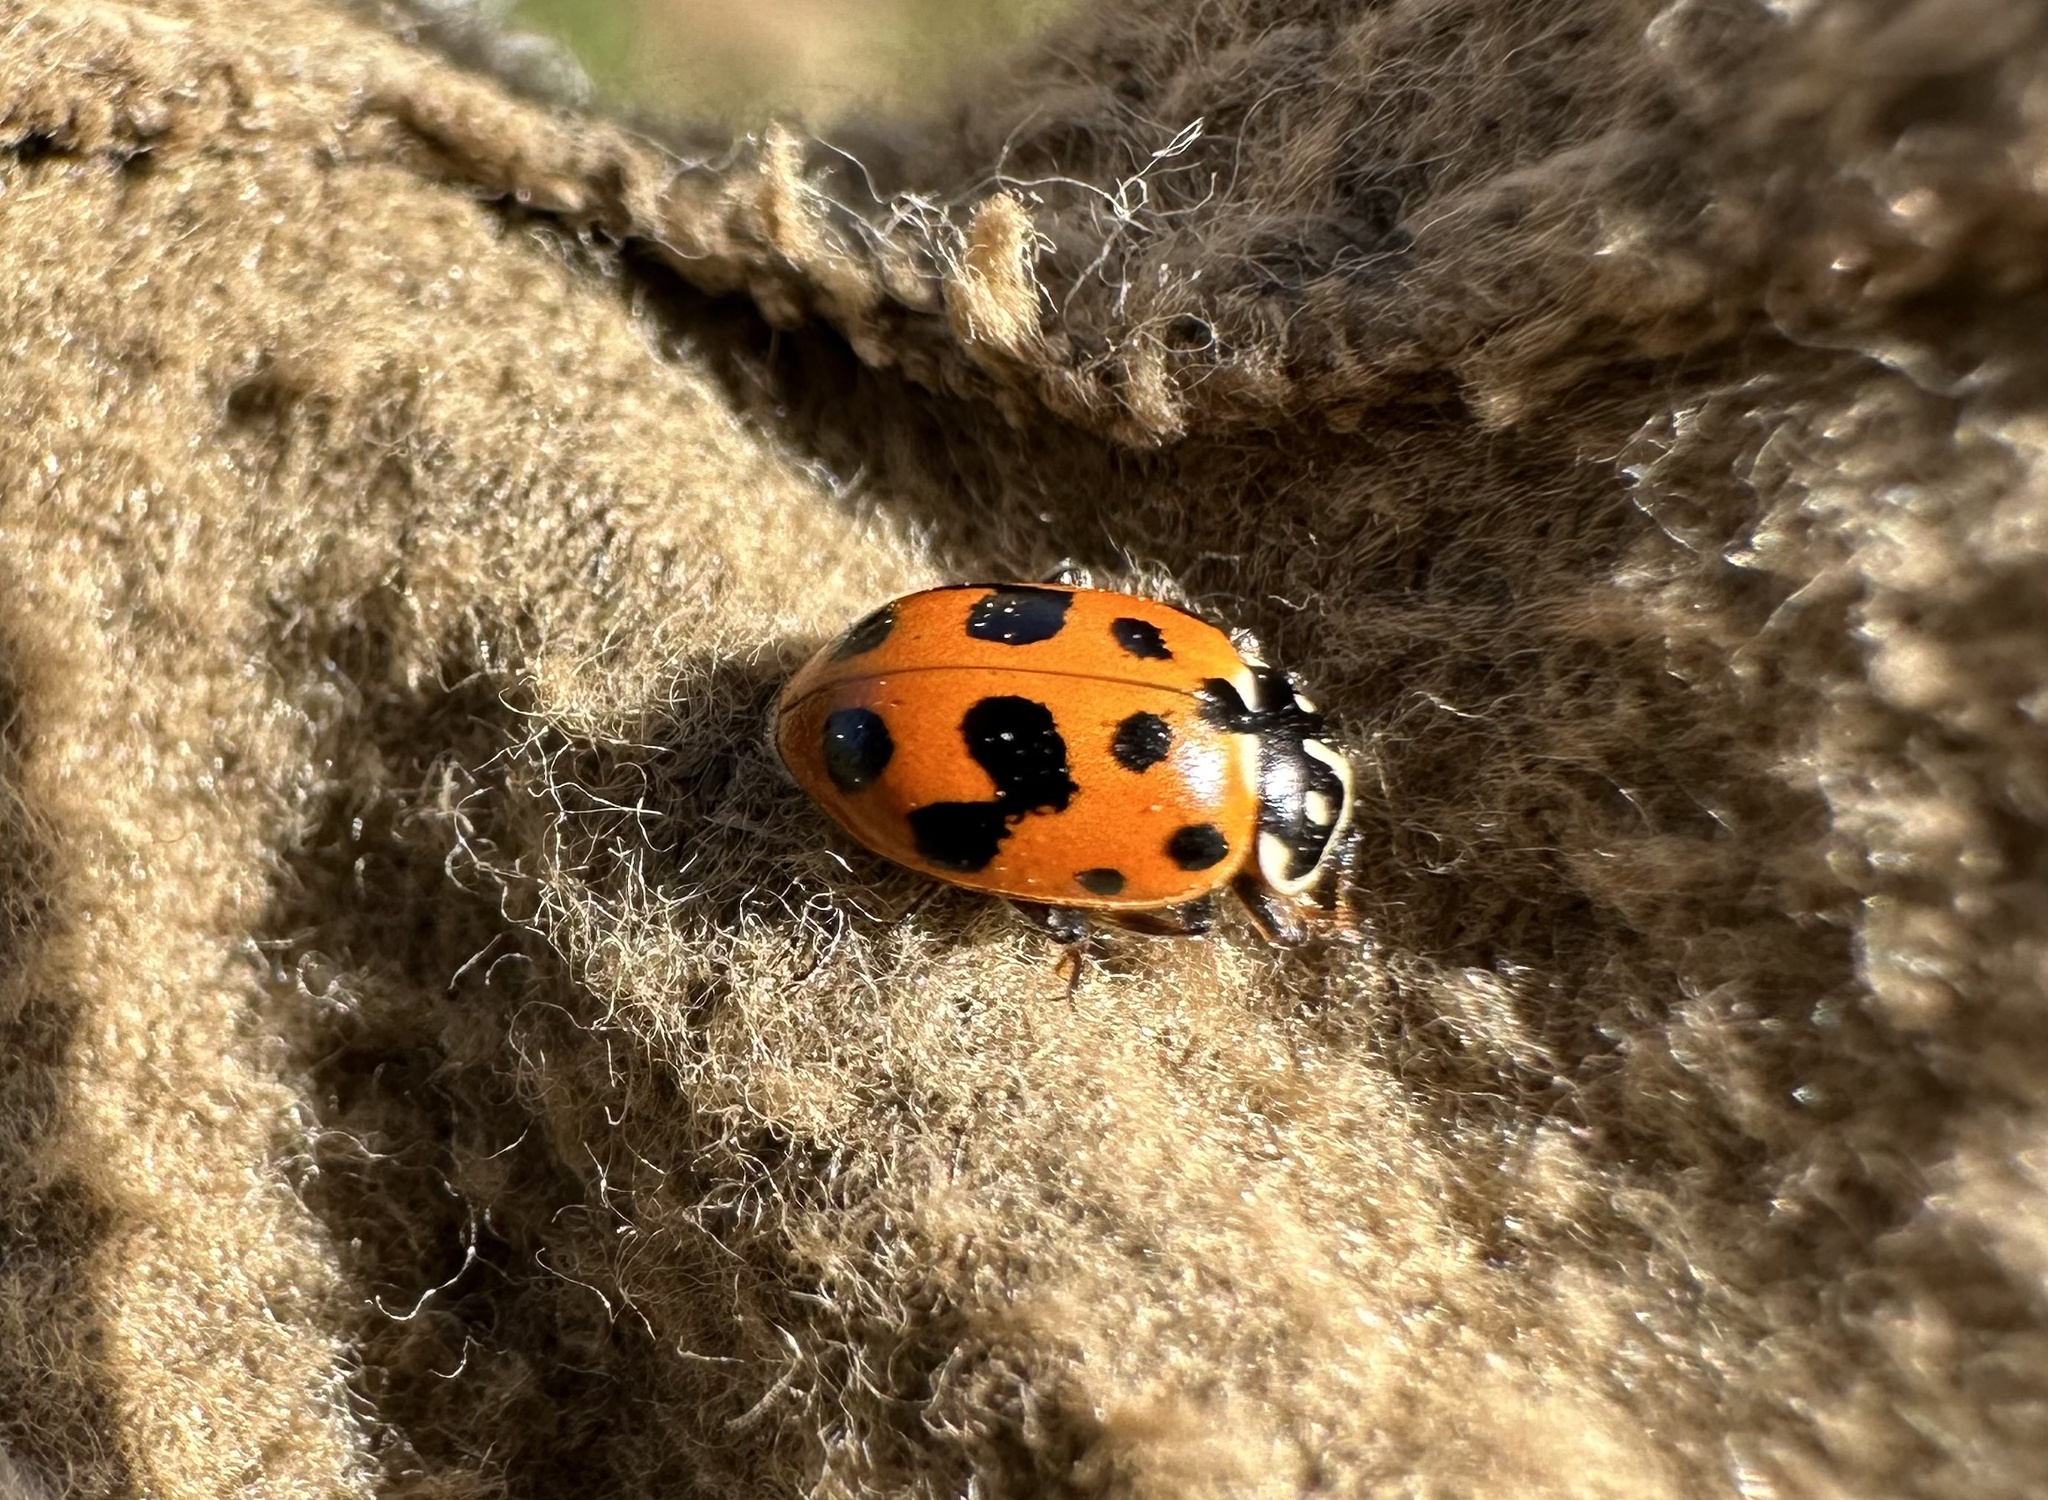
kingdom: Animalia
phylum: Arthropoda
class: Insecta
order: Coleoptera
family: Coccinellidae
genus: Hippodamia
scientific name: Hippodamia variegata
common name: Ladybird beetle
